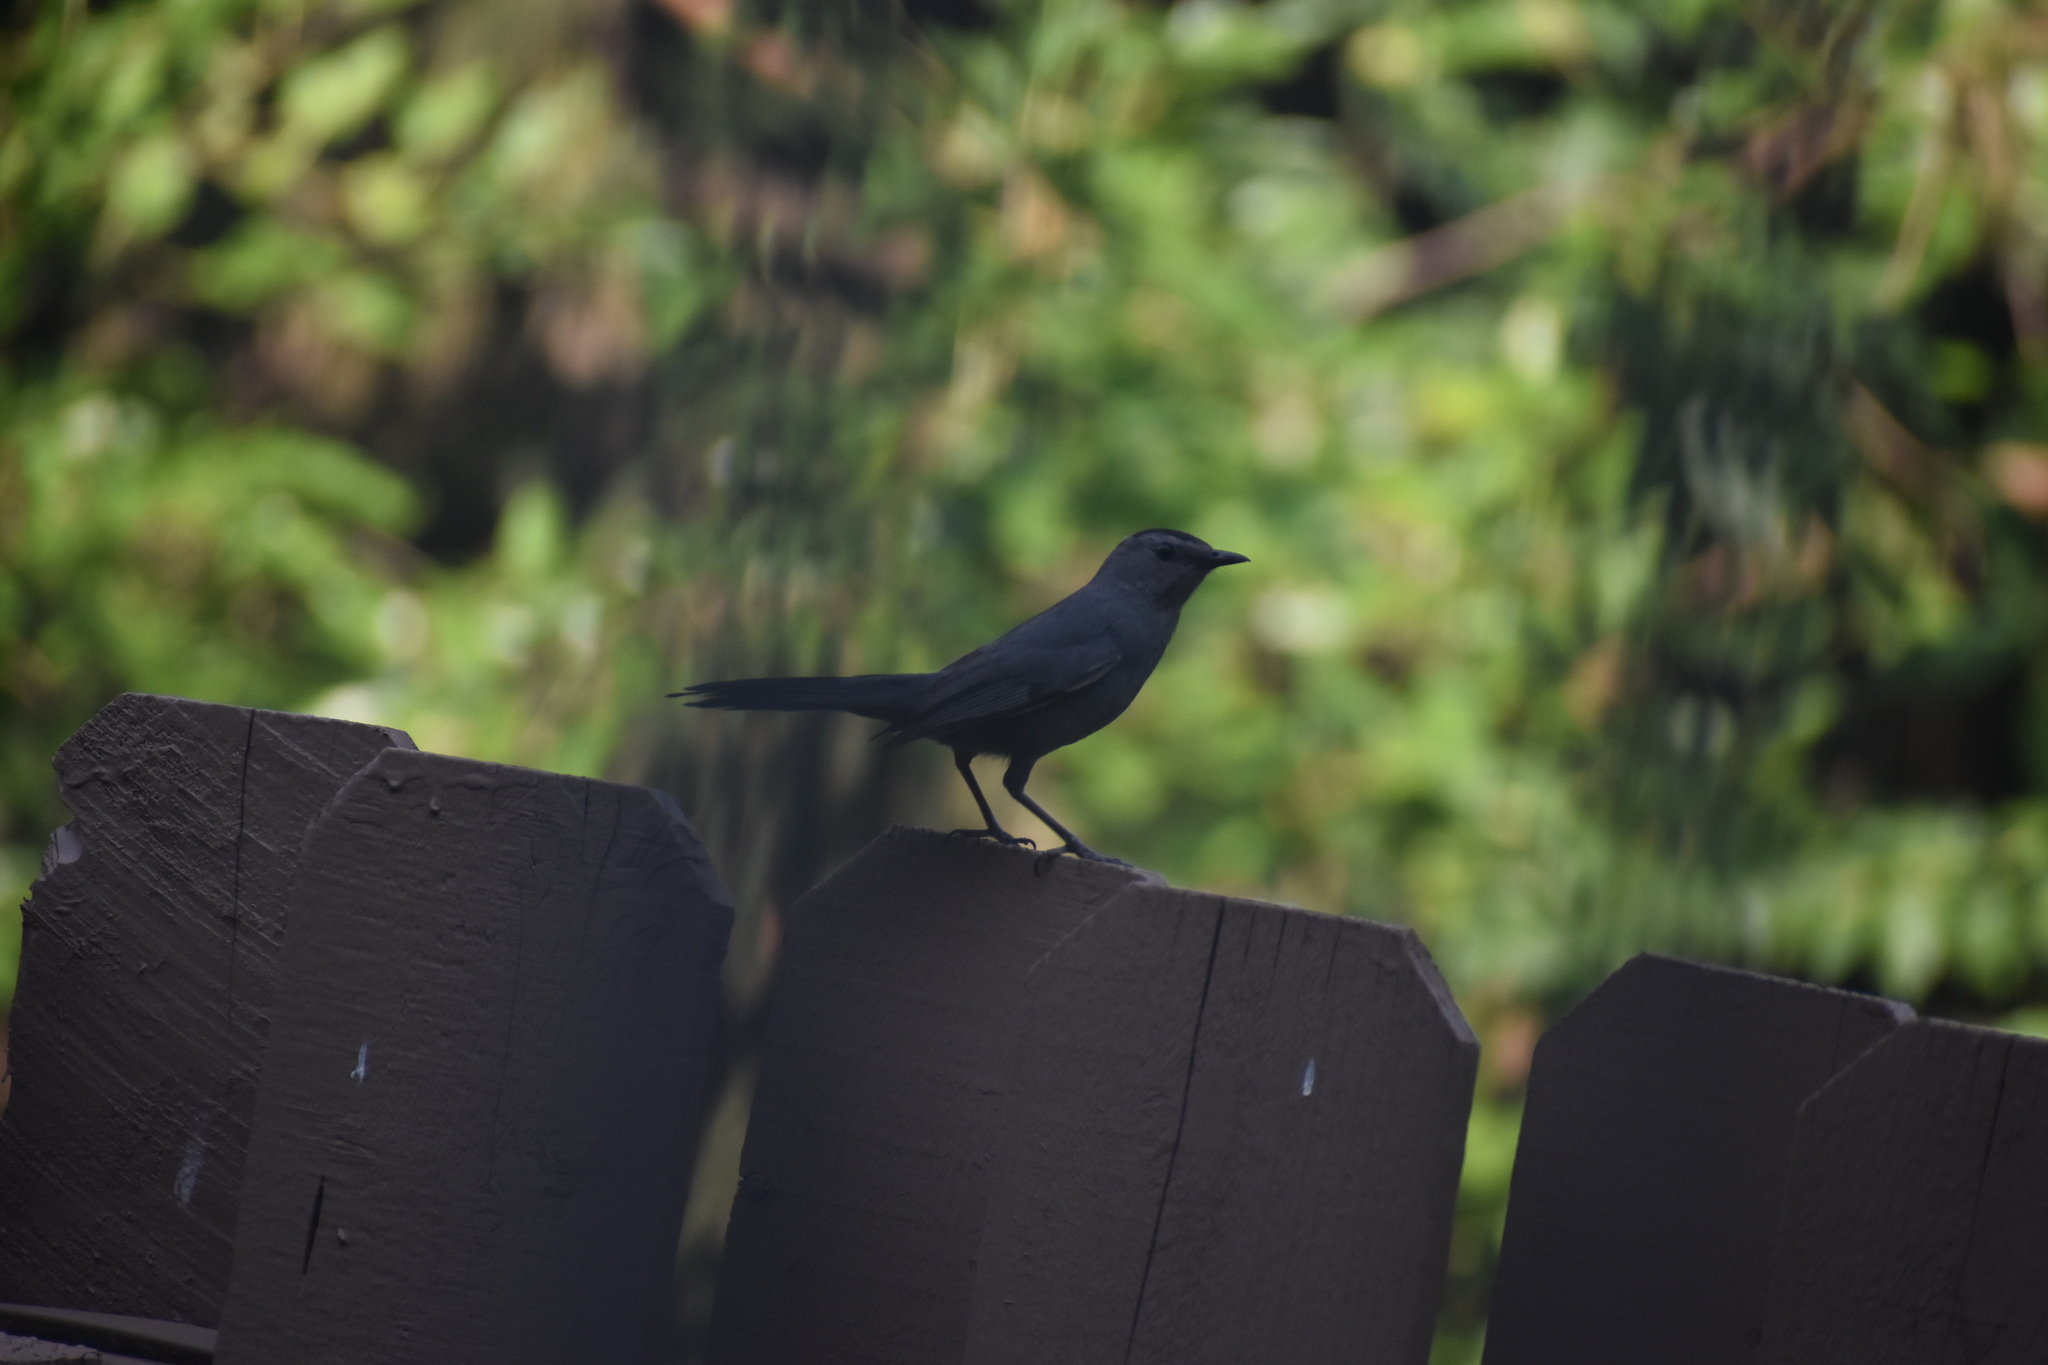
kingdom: Animalia
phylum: Chordata
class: Aves
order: Passeriformes
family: Mimidae
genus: Dumetella
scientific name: Dumetella carolinensis
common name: Gray catbird
